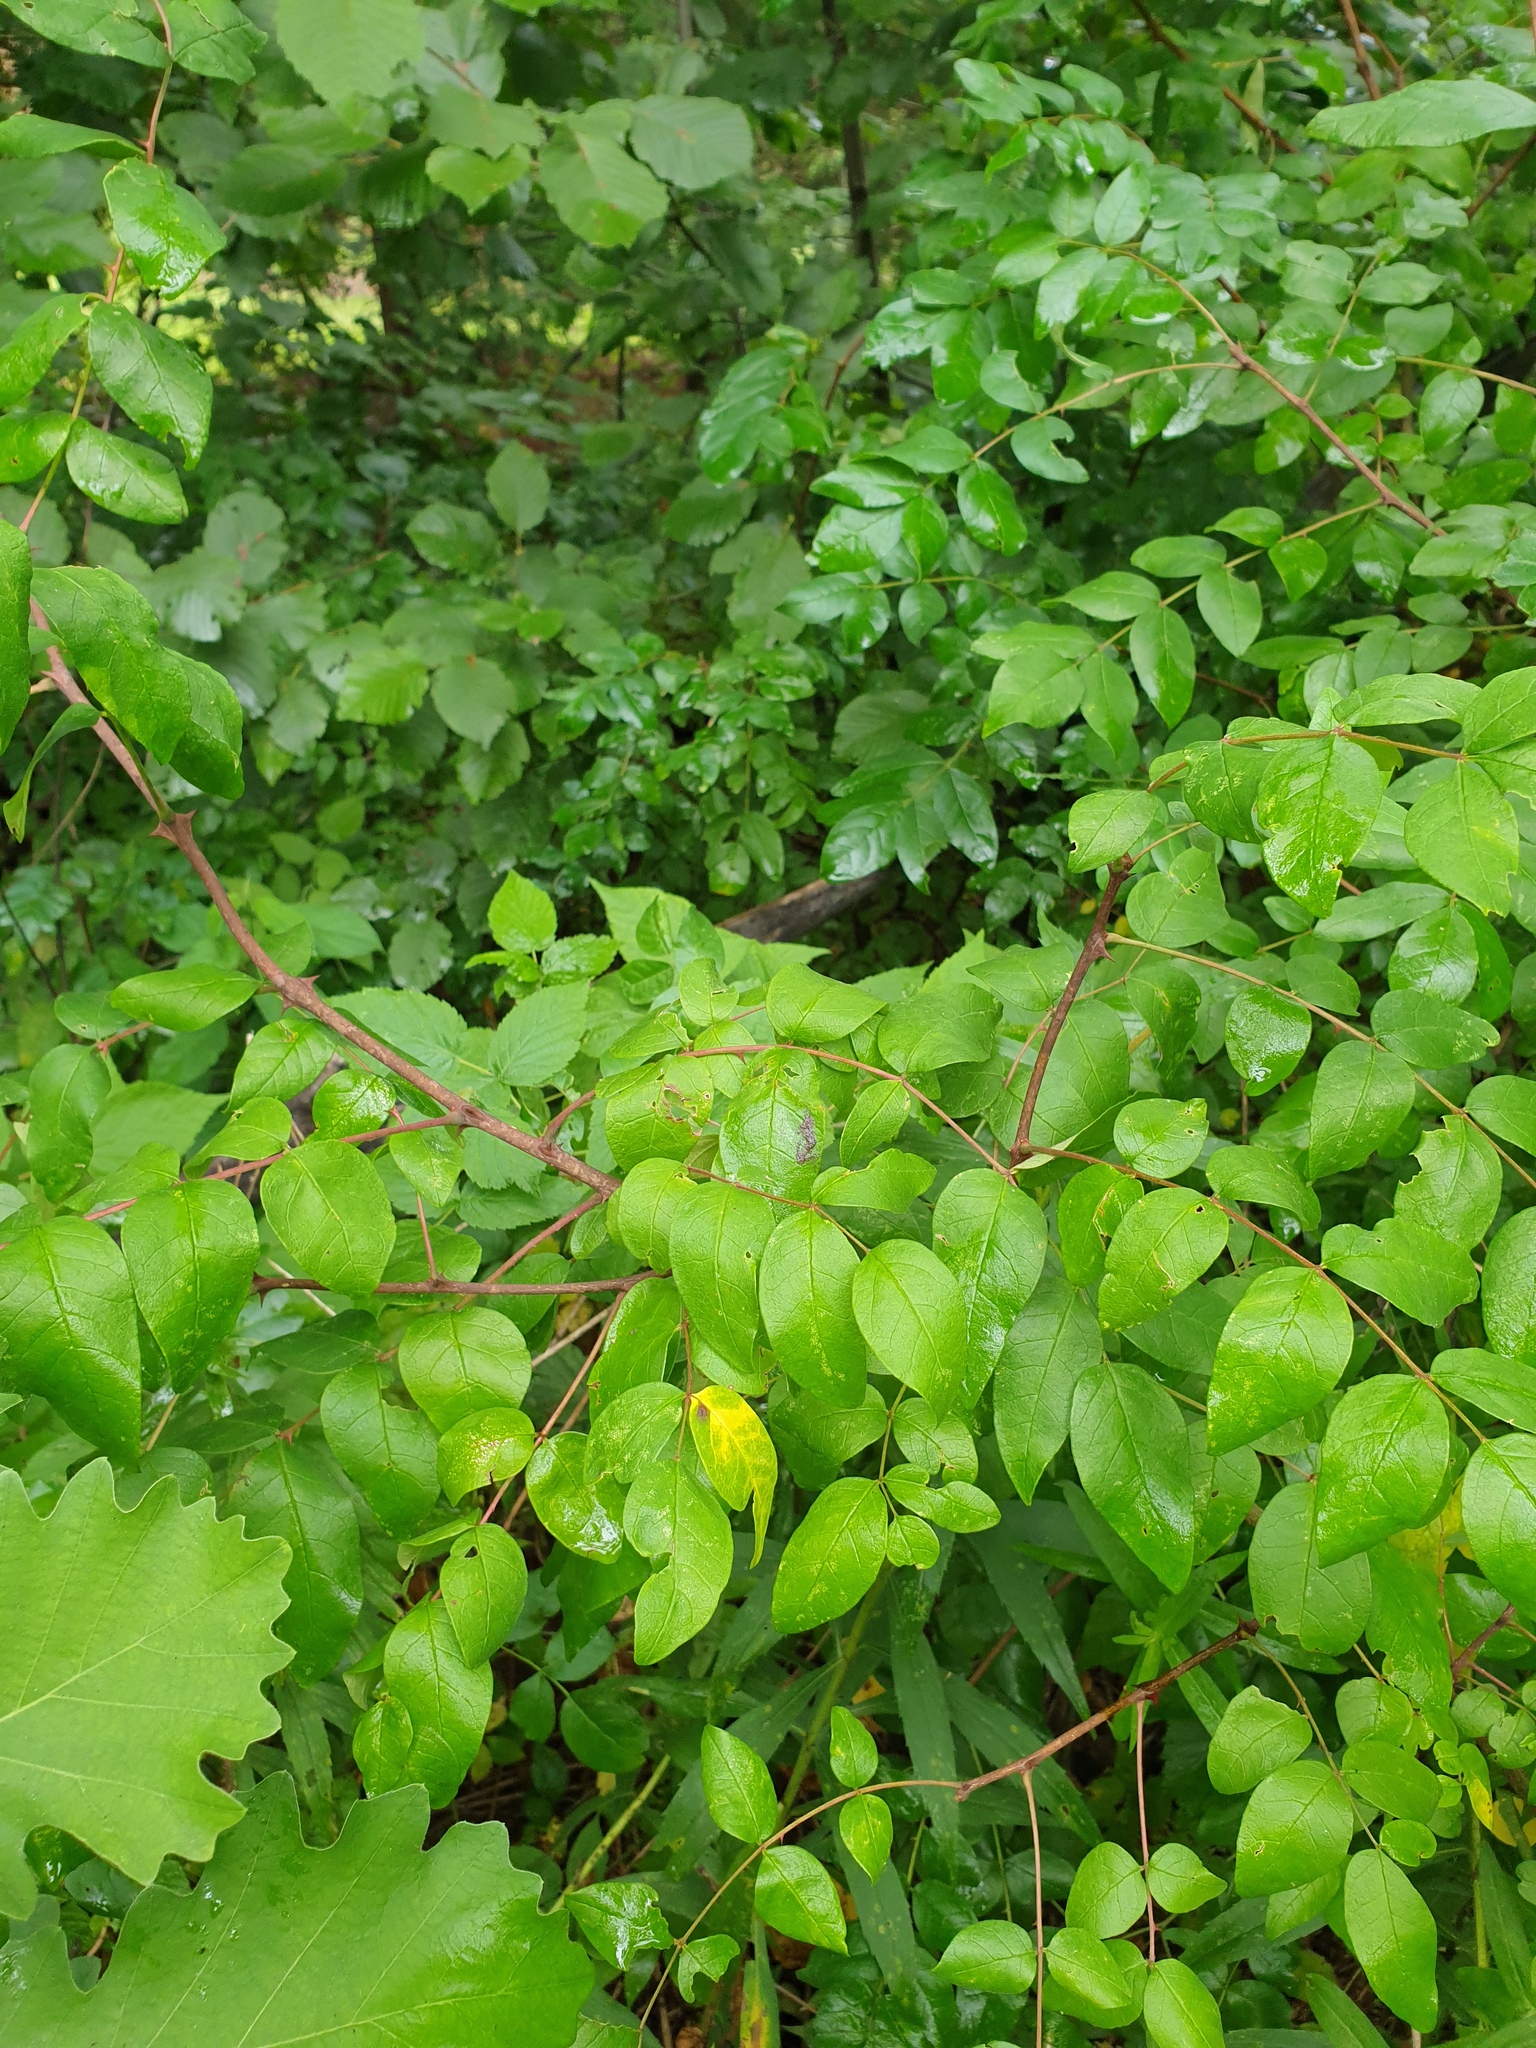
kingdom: Plantae
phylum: Tracheophyta
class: Magnoliopsida
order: Sapindales
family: Rutaceae
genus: Zanthoxylum
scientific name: Zanthoxylum americanum
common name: Northern prickly-ash
